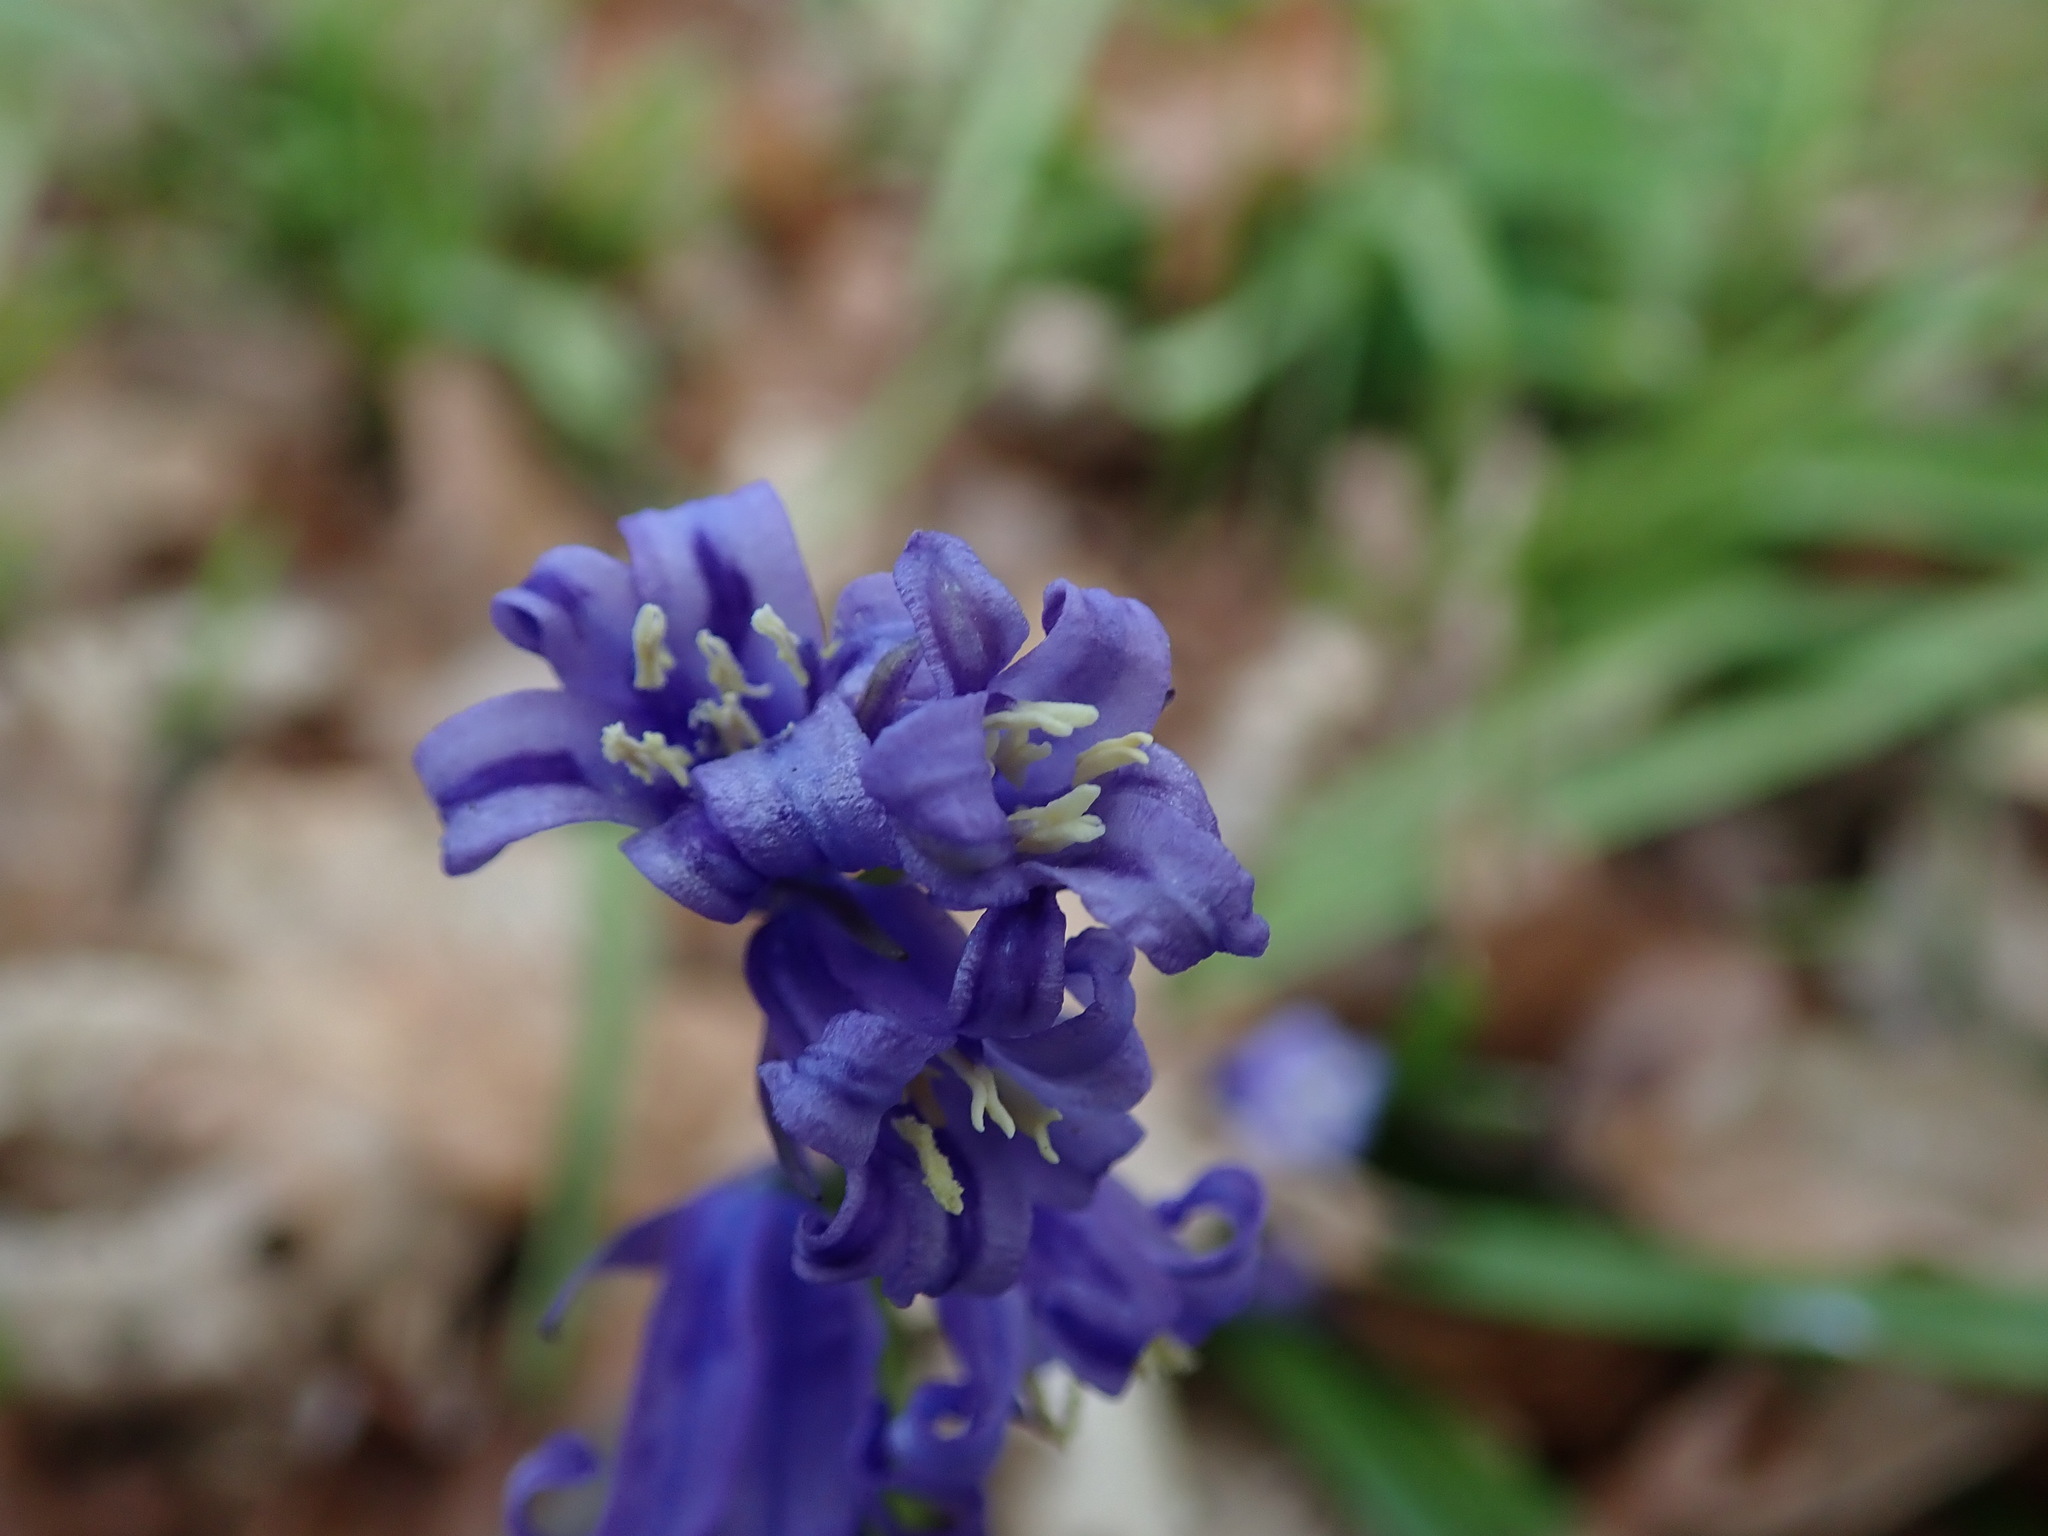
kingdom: Plantae
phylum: Tracheophyta
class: Liliopsida
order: Asparagales
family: Asparagaceae
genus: Hyacinthoides
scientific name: Hyacinthoides non-scripta
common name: Bluebell
